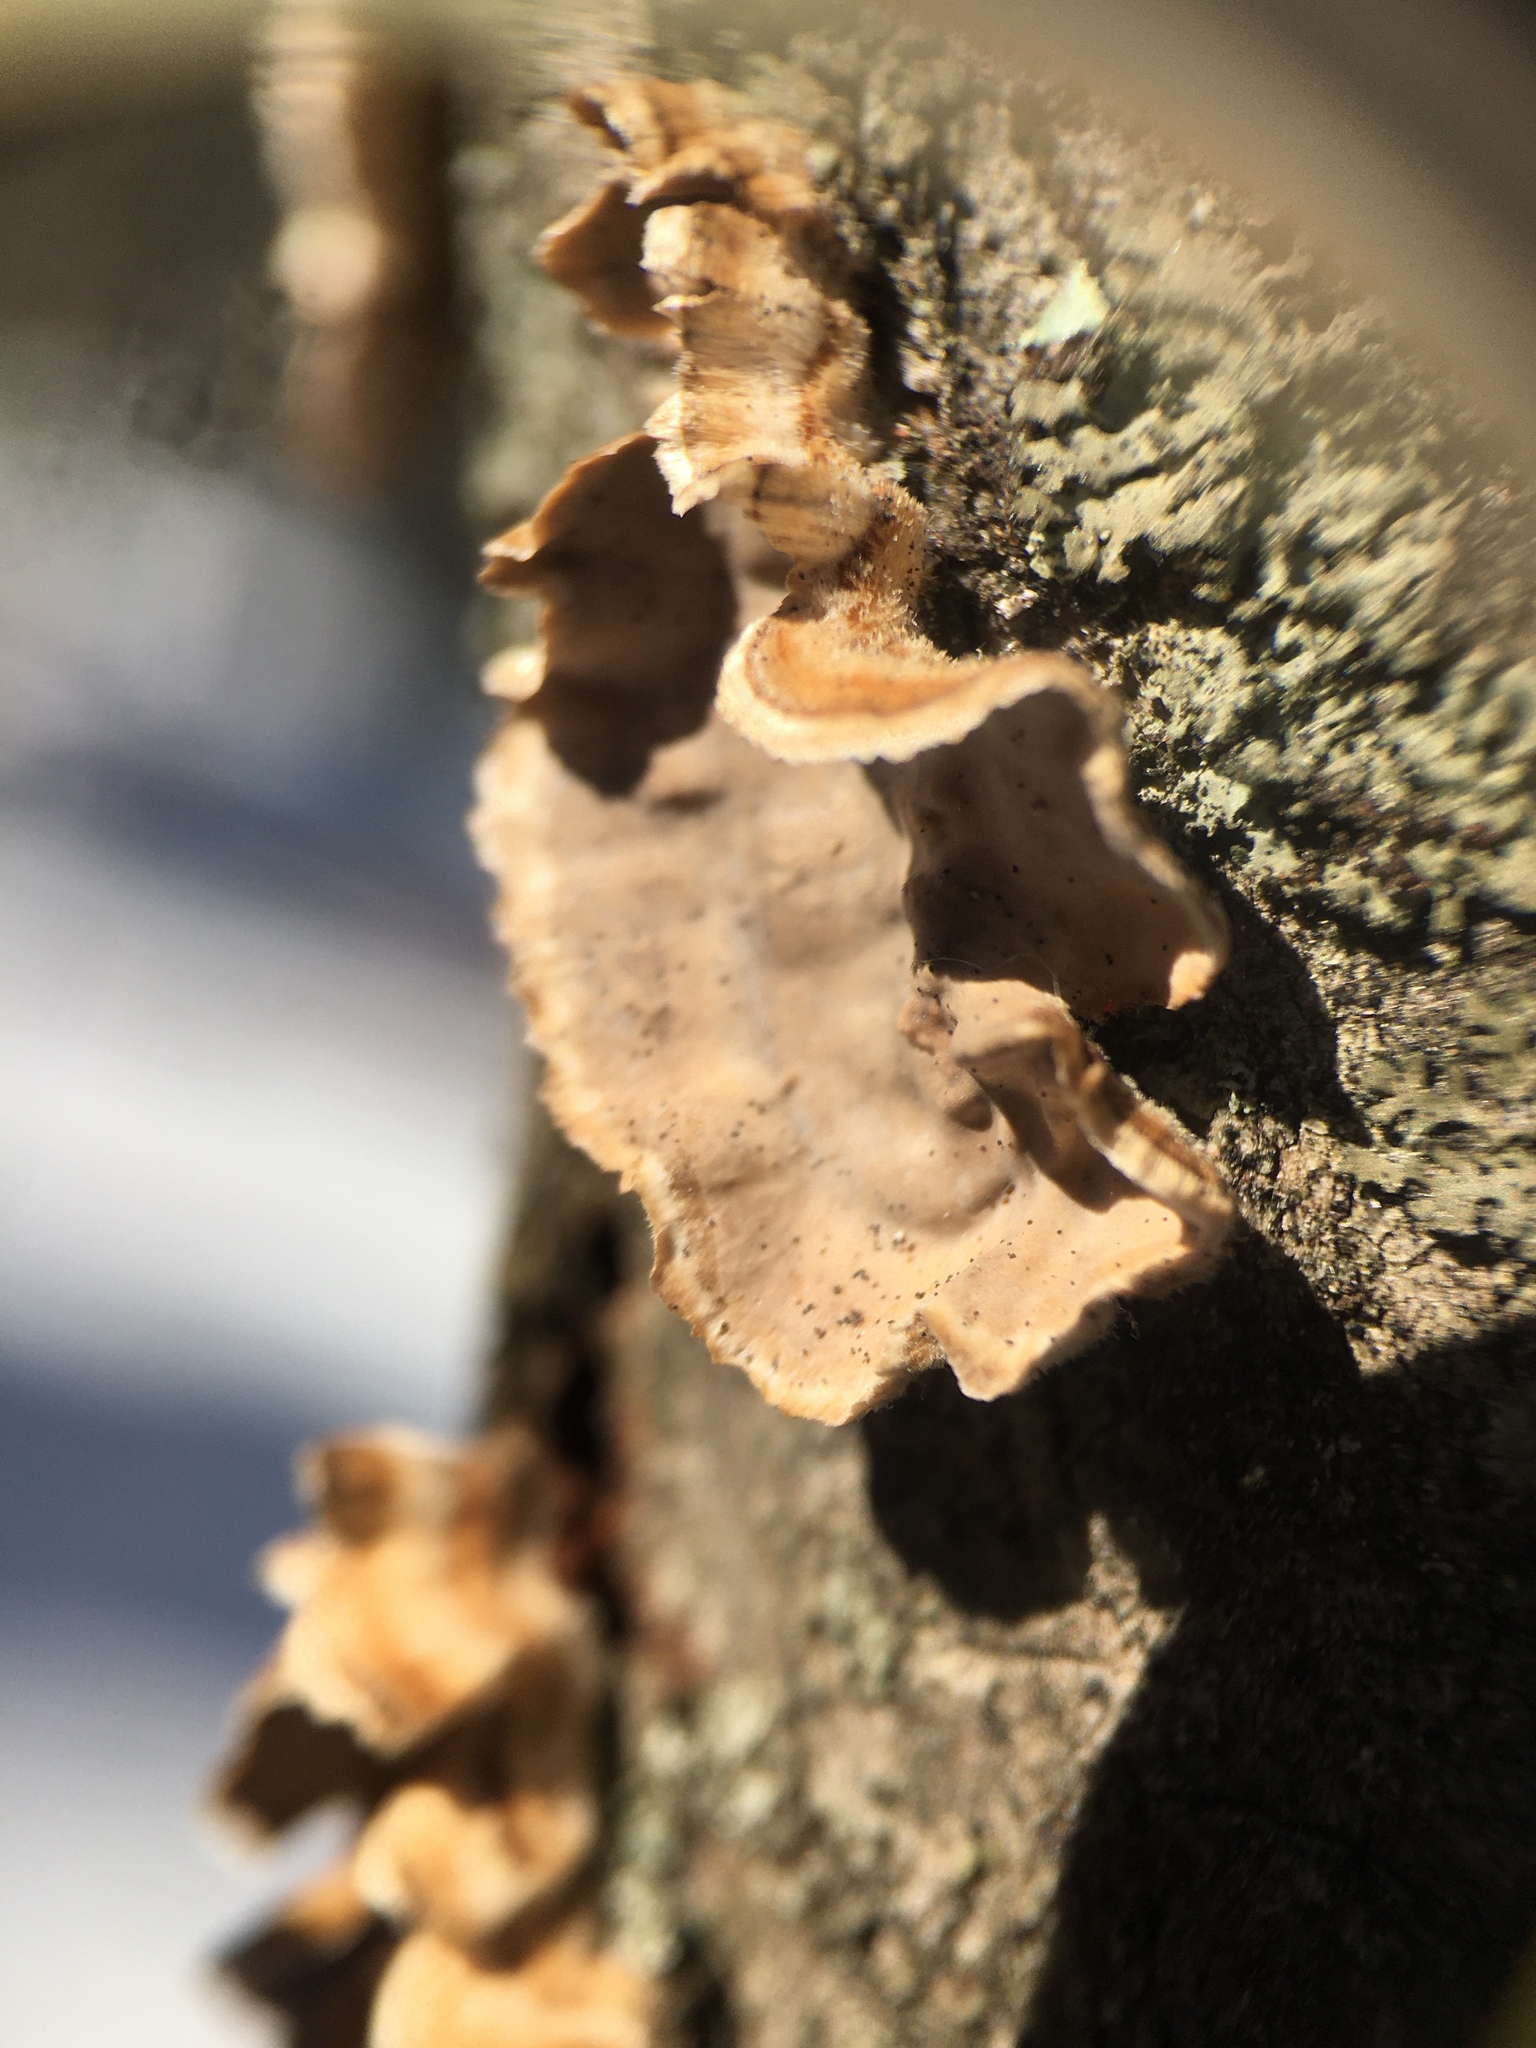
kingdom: Fungi
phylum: Basidiomycota
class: Agaricomycetes
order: Russulales
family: Stereaceae
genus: Stereum
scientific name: Stereum complicatum
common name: Crowded parchment
